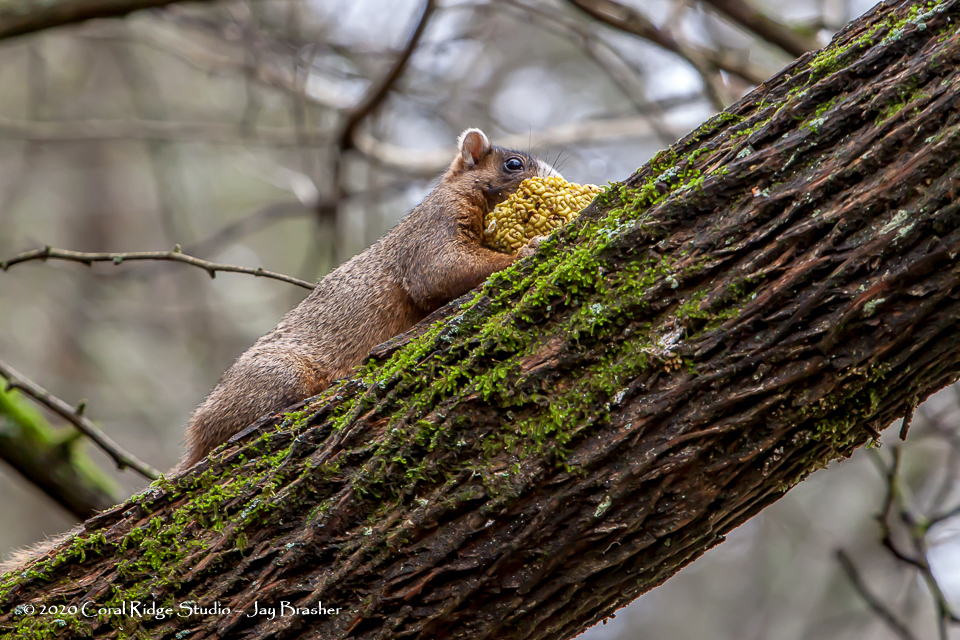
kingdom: Animalia
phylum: Chordata
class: Mammalia
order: Rodentia
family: Sciuridae
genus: Sciurus
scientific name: Sciurus niger
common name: Fox squirrel
